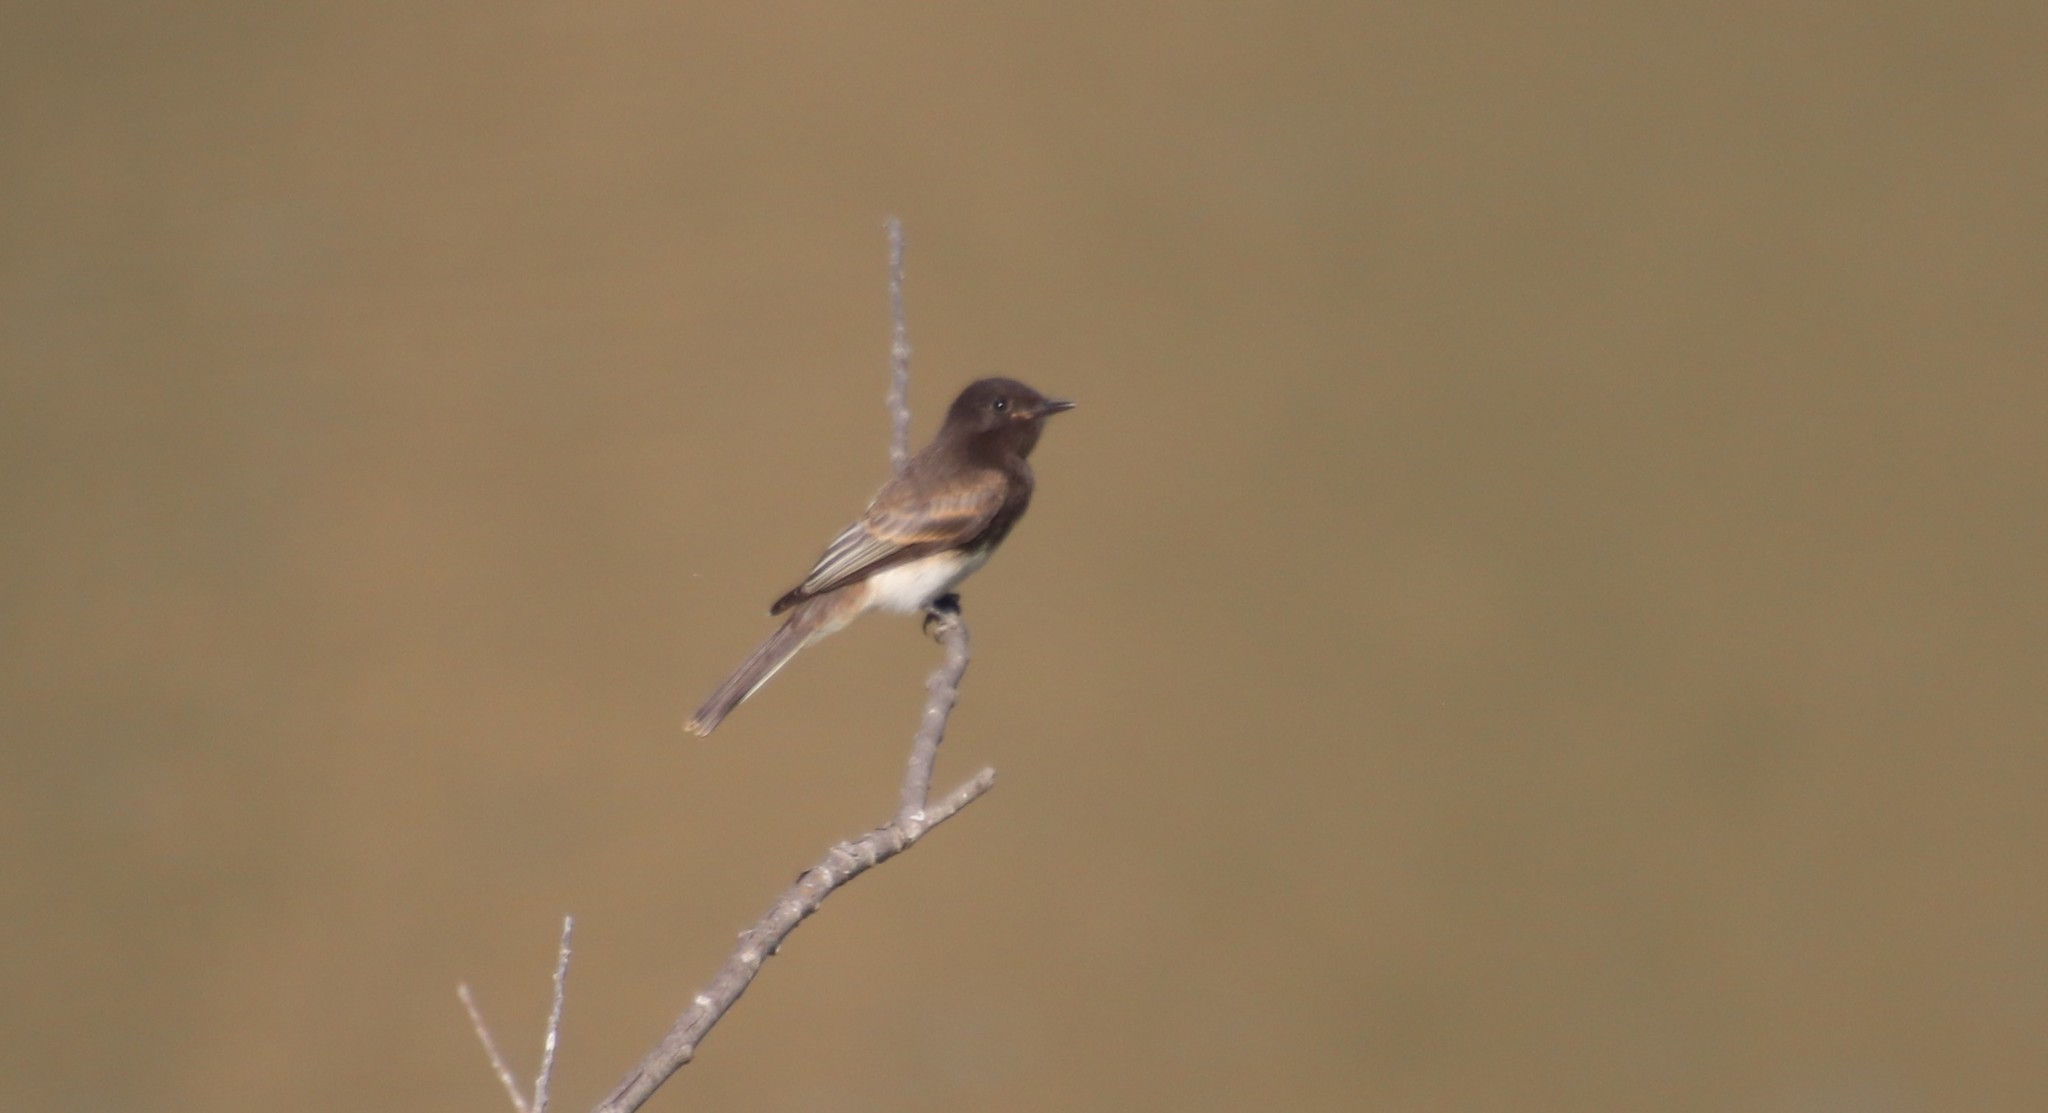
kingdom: Animalia
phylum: Chordata
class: Aves
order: Passeriformes
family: Tyrannidae
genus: Sayornis
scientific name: Sayornis nigricans
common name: Black phoebe
